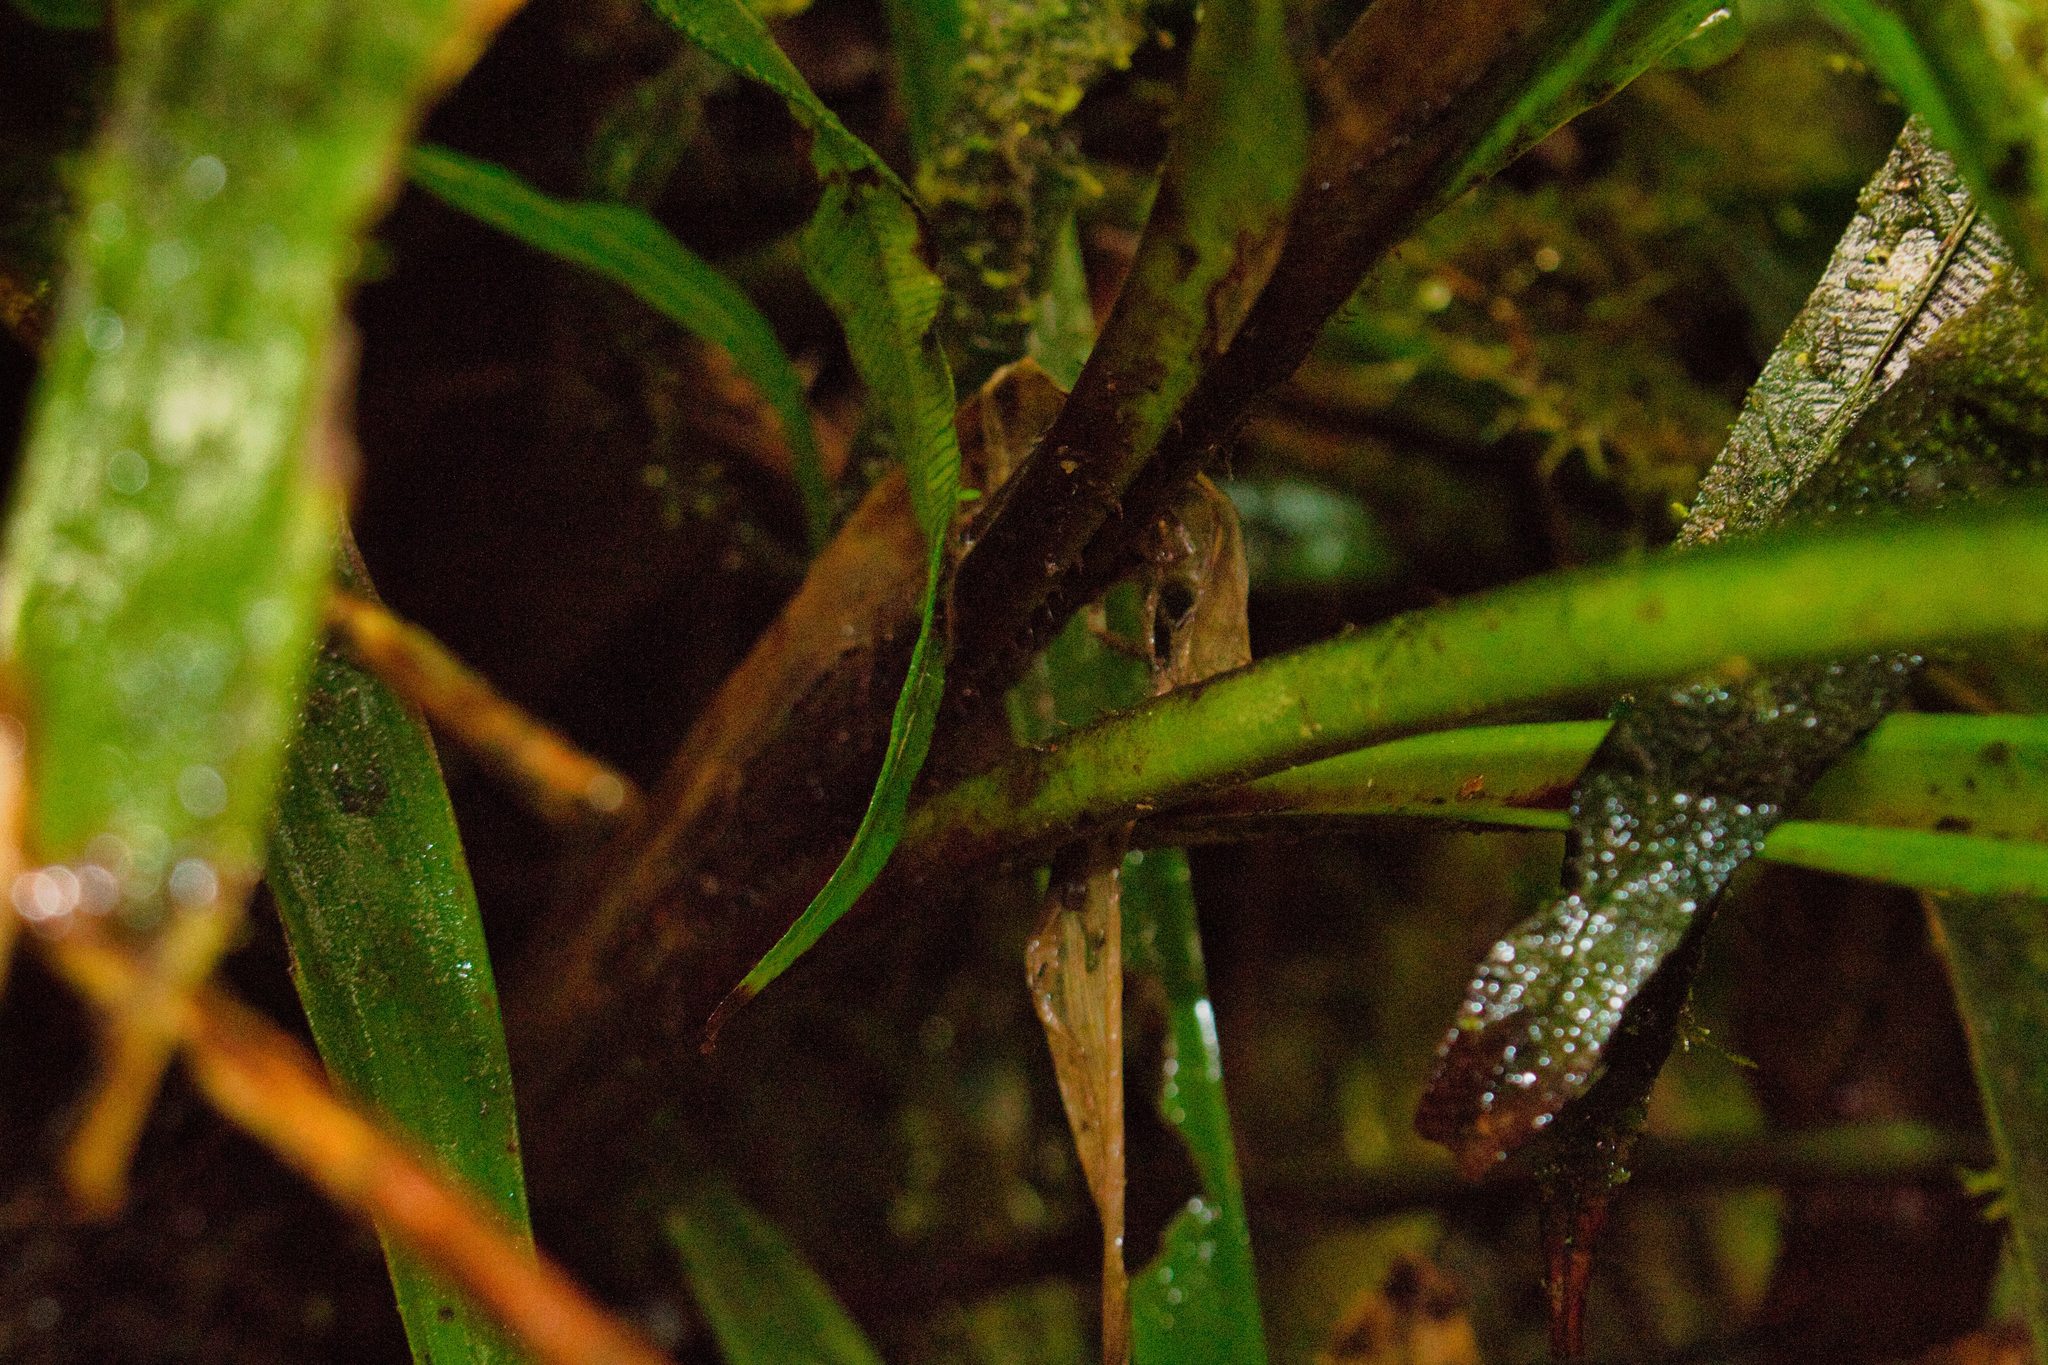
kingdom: Plantae
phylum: Tracheophyta
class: Liliopsida
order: Poales
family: Bromeliaceae
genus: Pitcairnia
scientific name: Pitcairnia brittoniana
